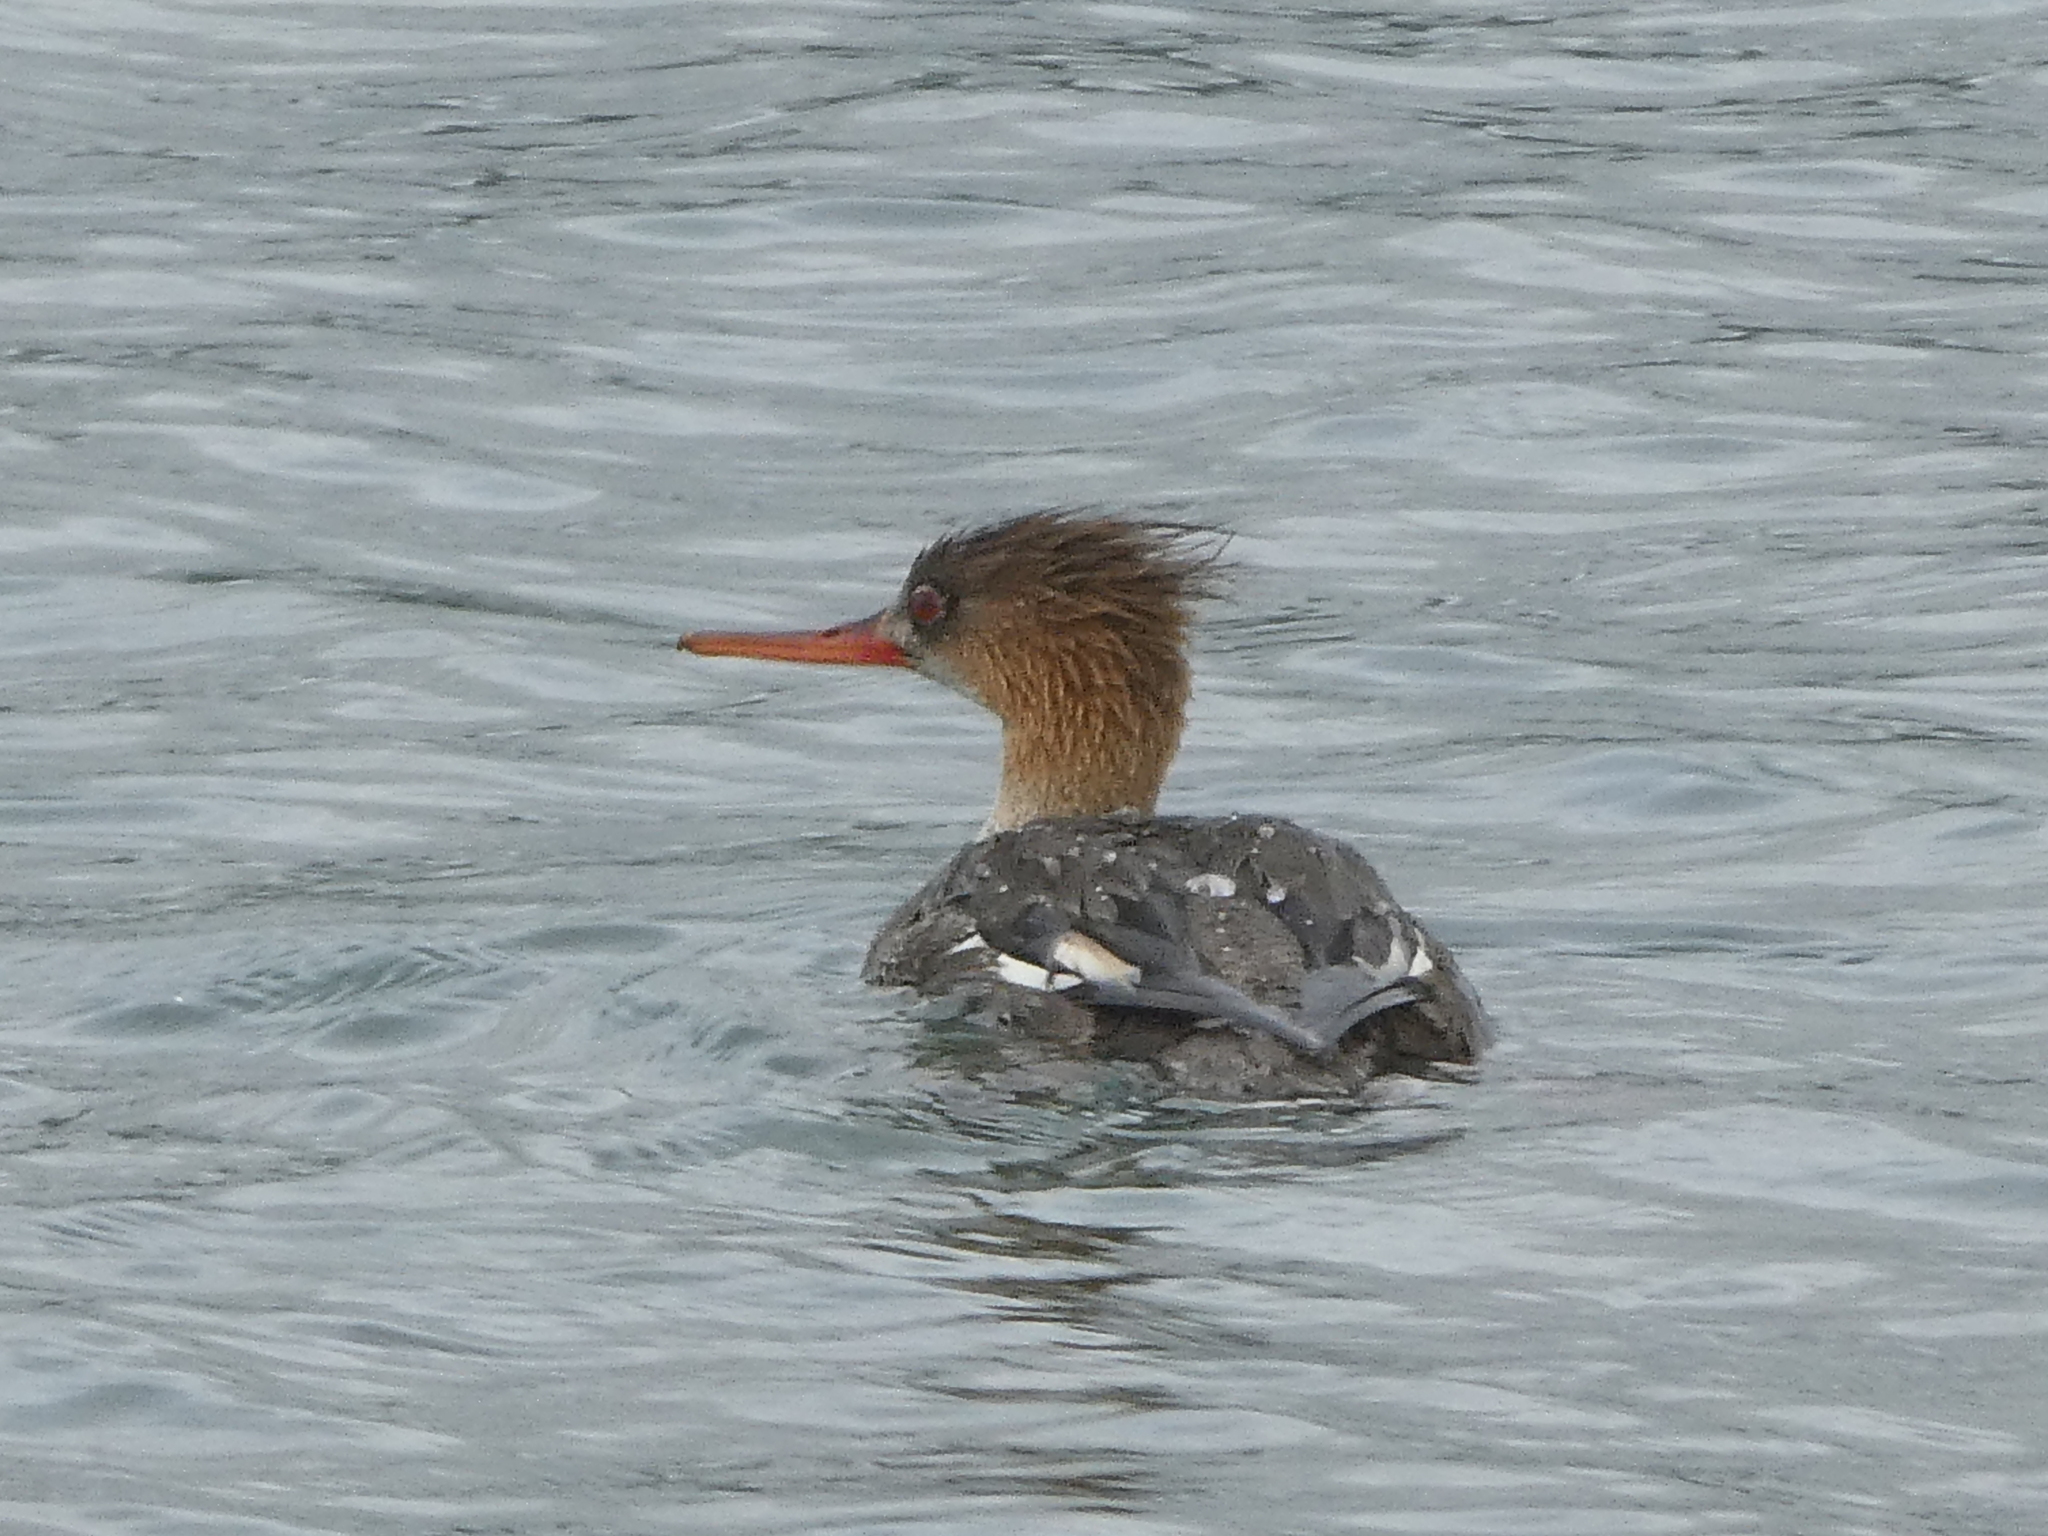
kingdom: Animalia
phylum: Chordata
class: Aves
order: Anseriformes
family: Anatidae
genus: Mergus
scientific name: Mergus serrator
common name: Red-breasted merganser
